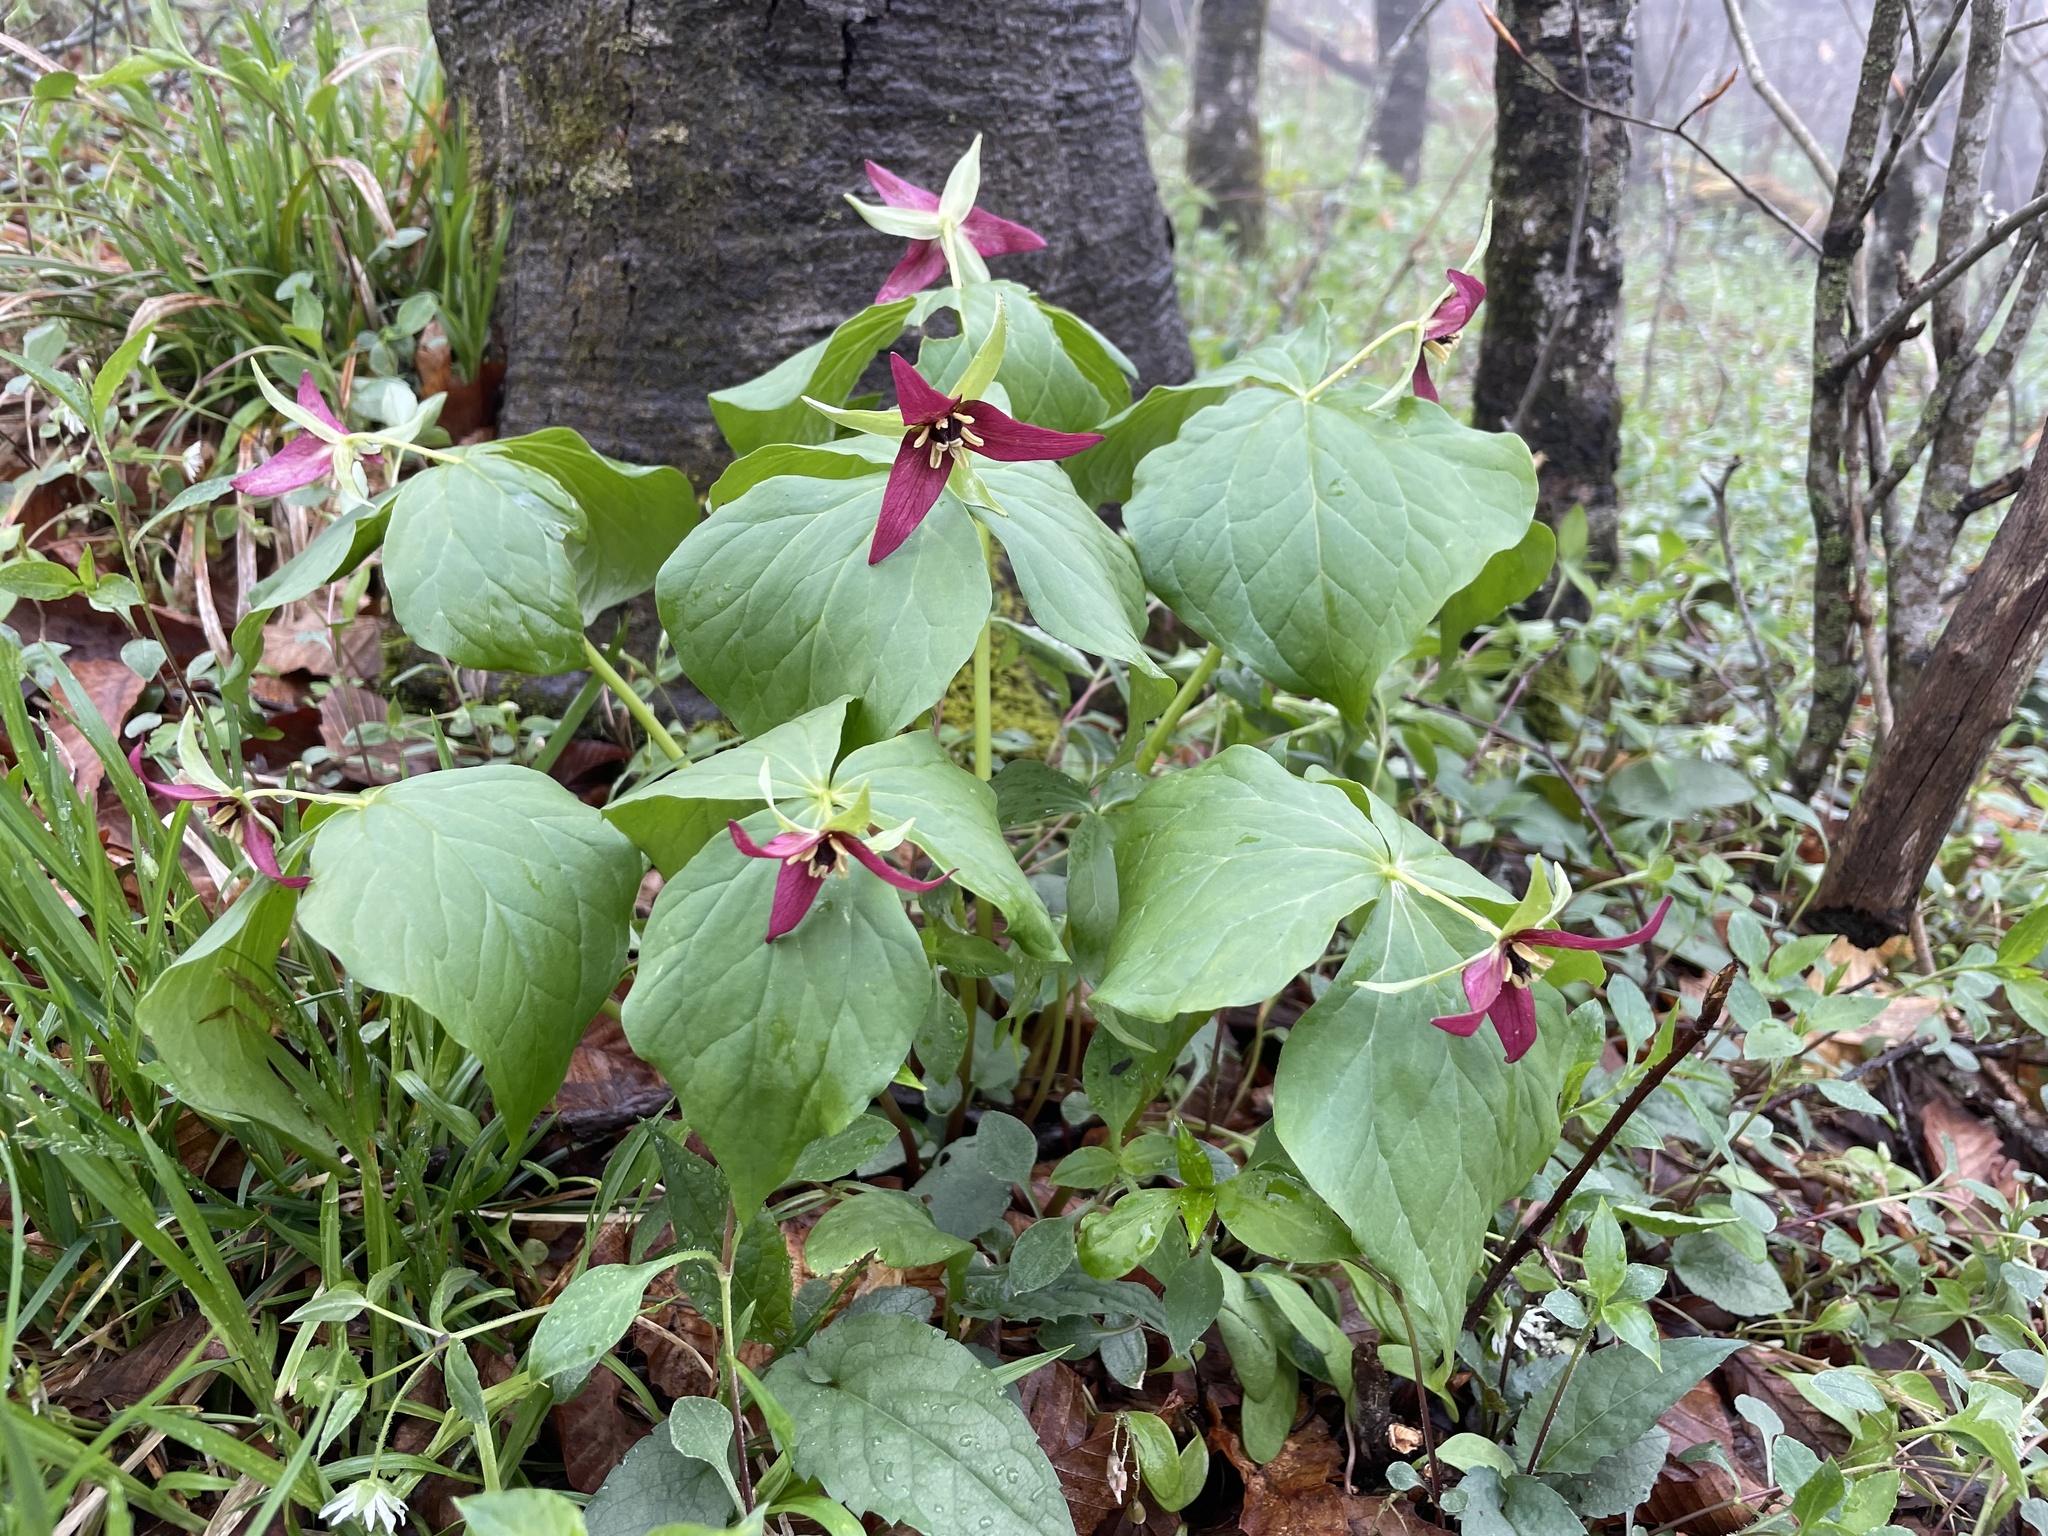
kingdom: Plantae
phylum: Tracheophyta
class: Liliopsida
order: Liliales
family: Melanthiaceae
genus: Trillium
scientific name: Trillium erectum
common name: Purple trillium
